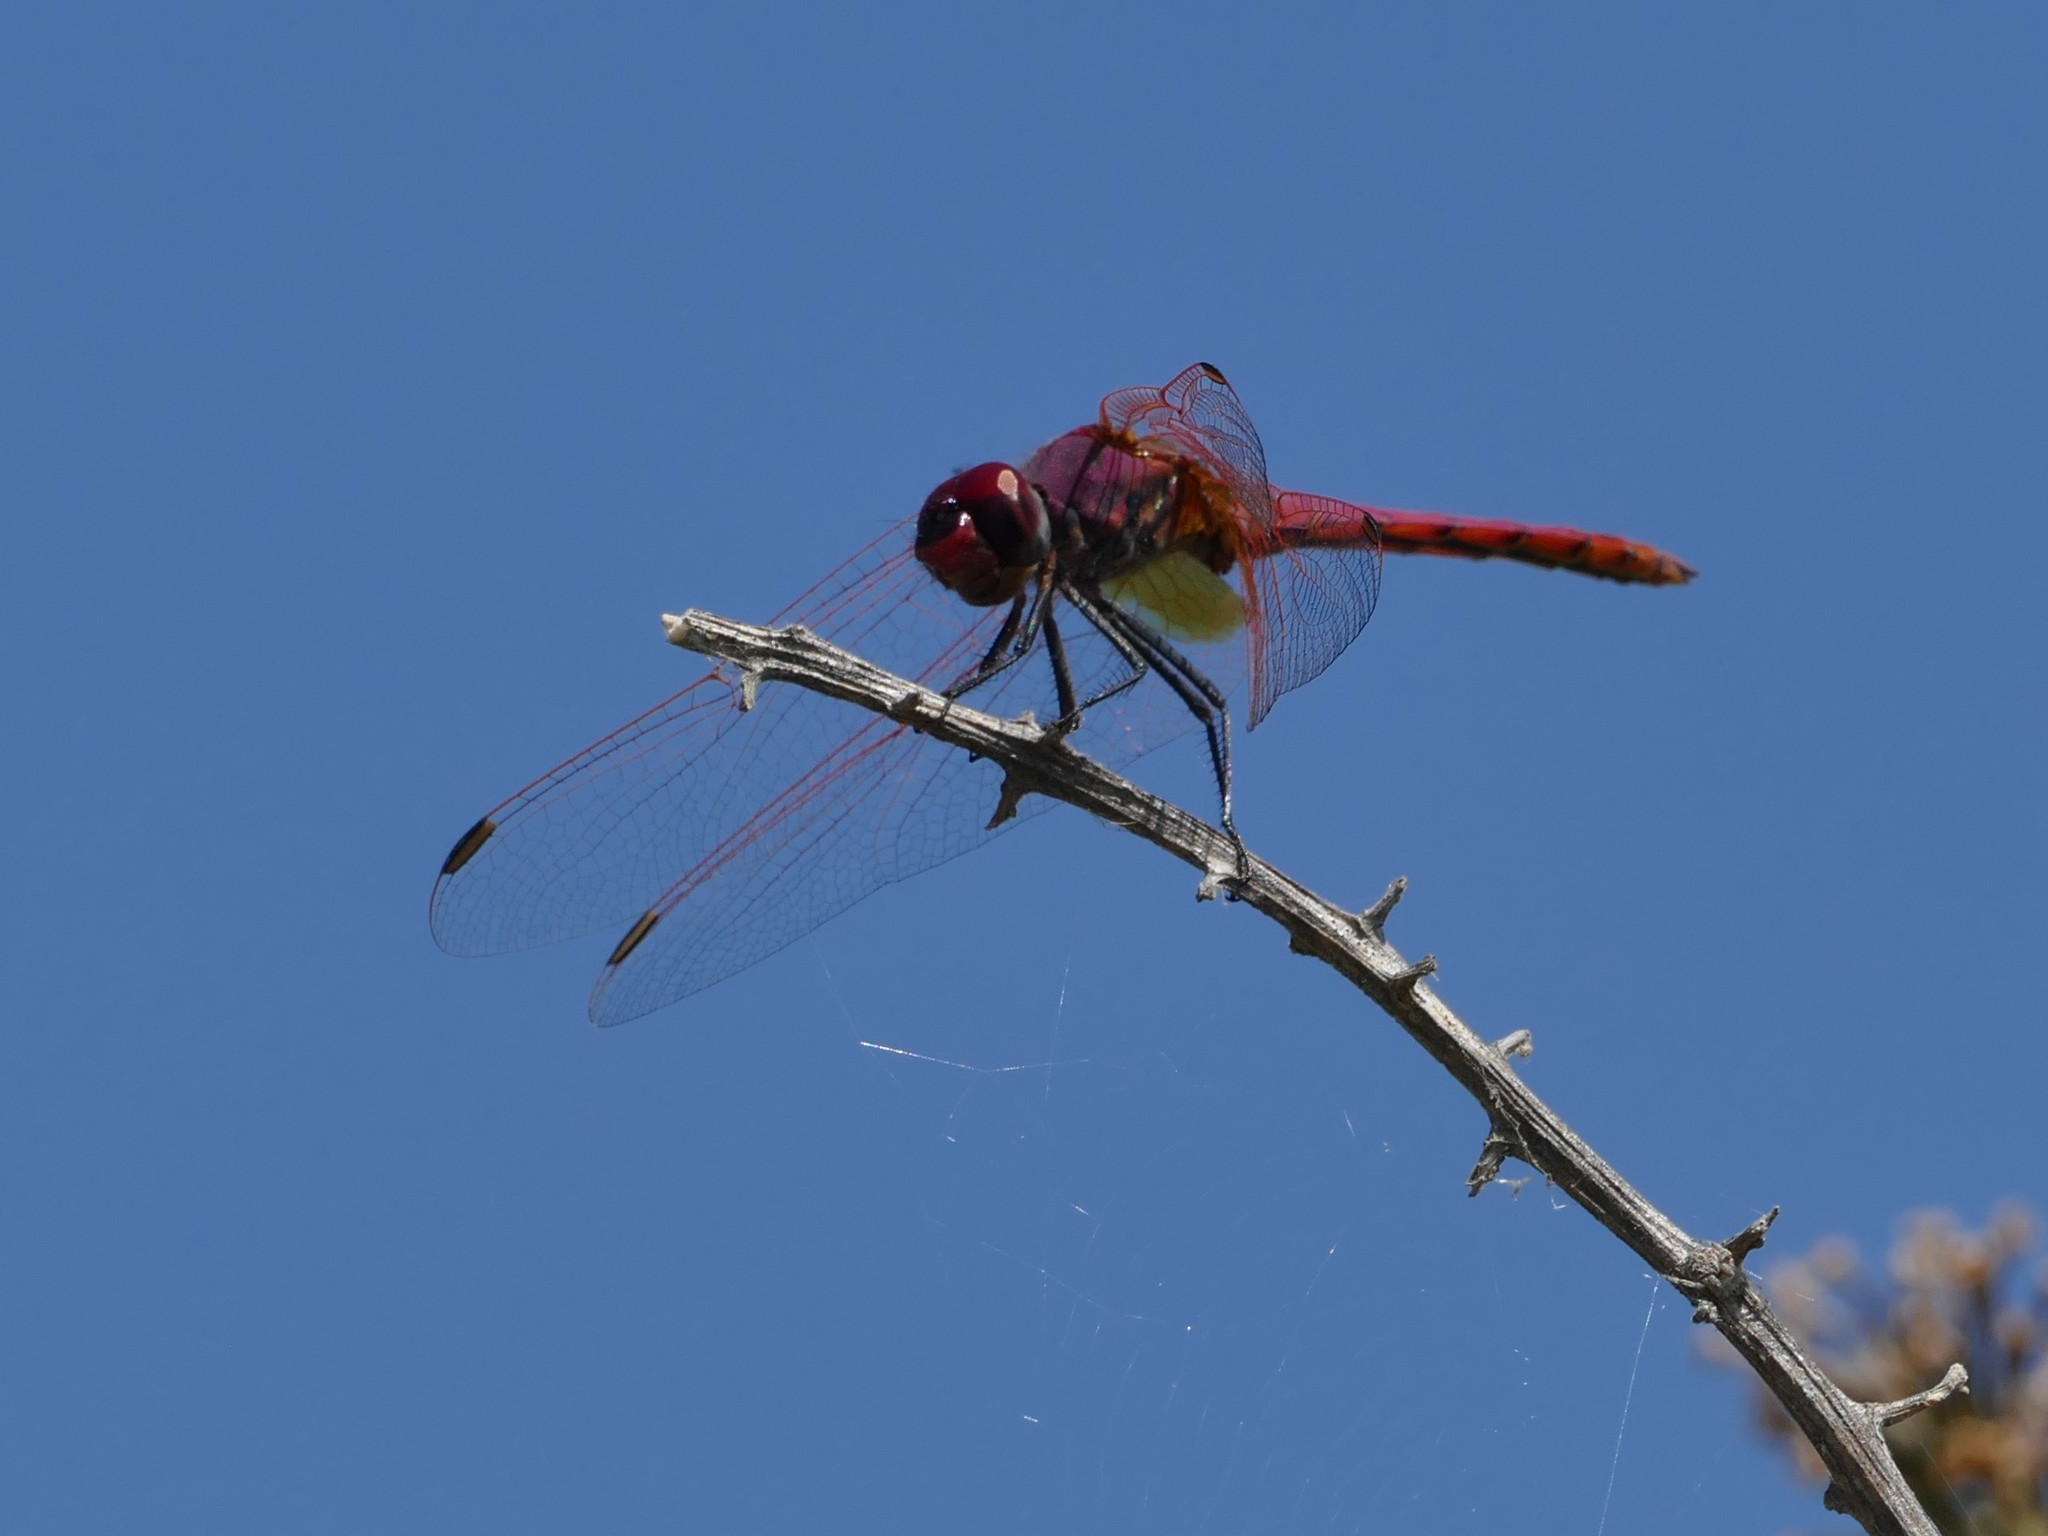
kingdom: Animalia
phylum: Arthropoda
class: Insecta
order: Odonata
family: Libellulidae
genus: Trithemis
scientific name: Trithemis annulata
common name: Violet dropwing
